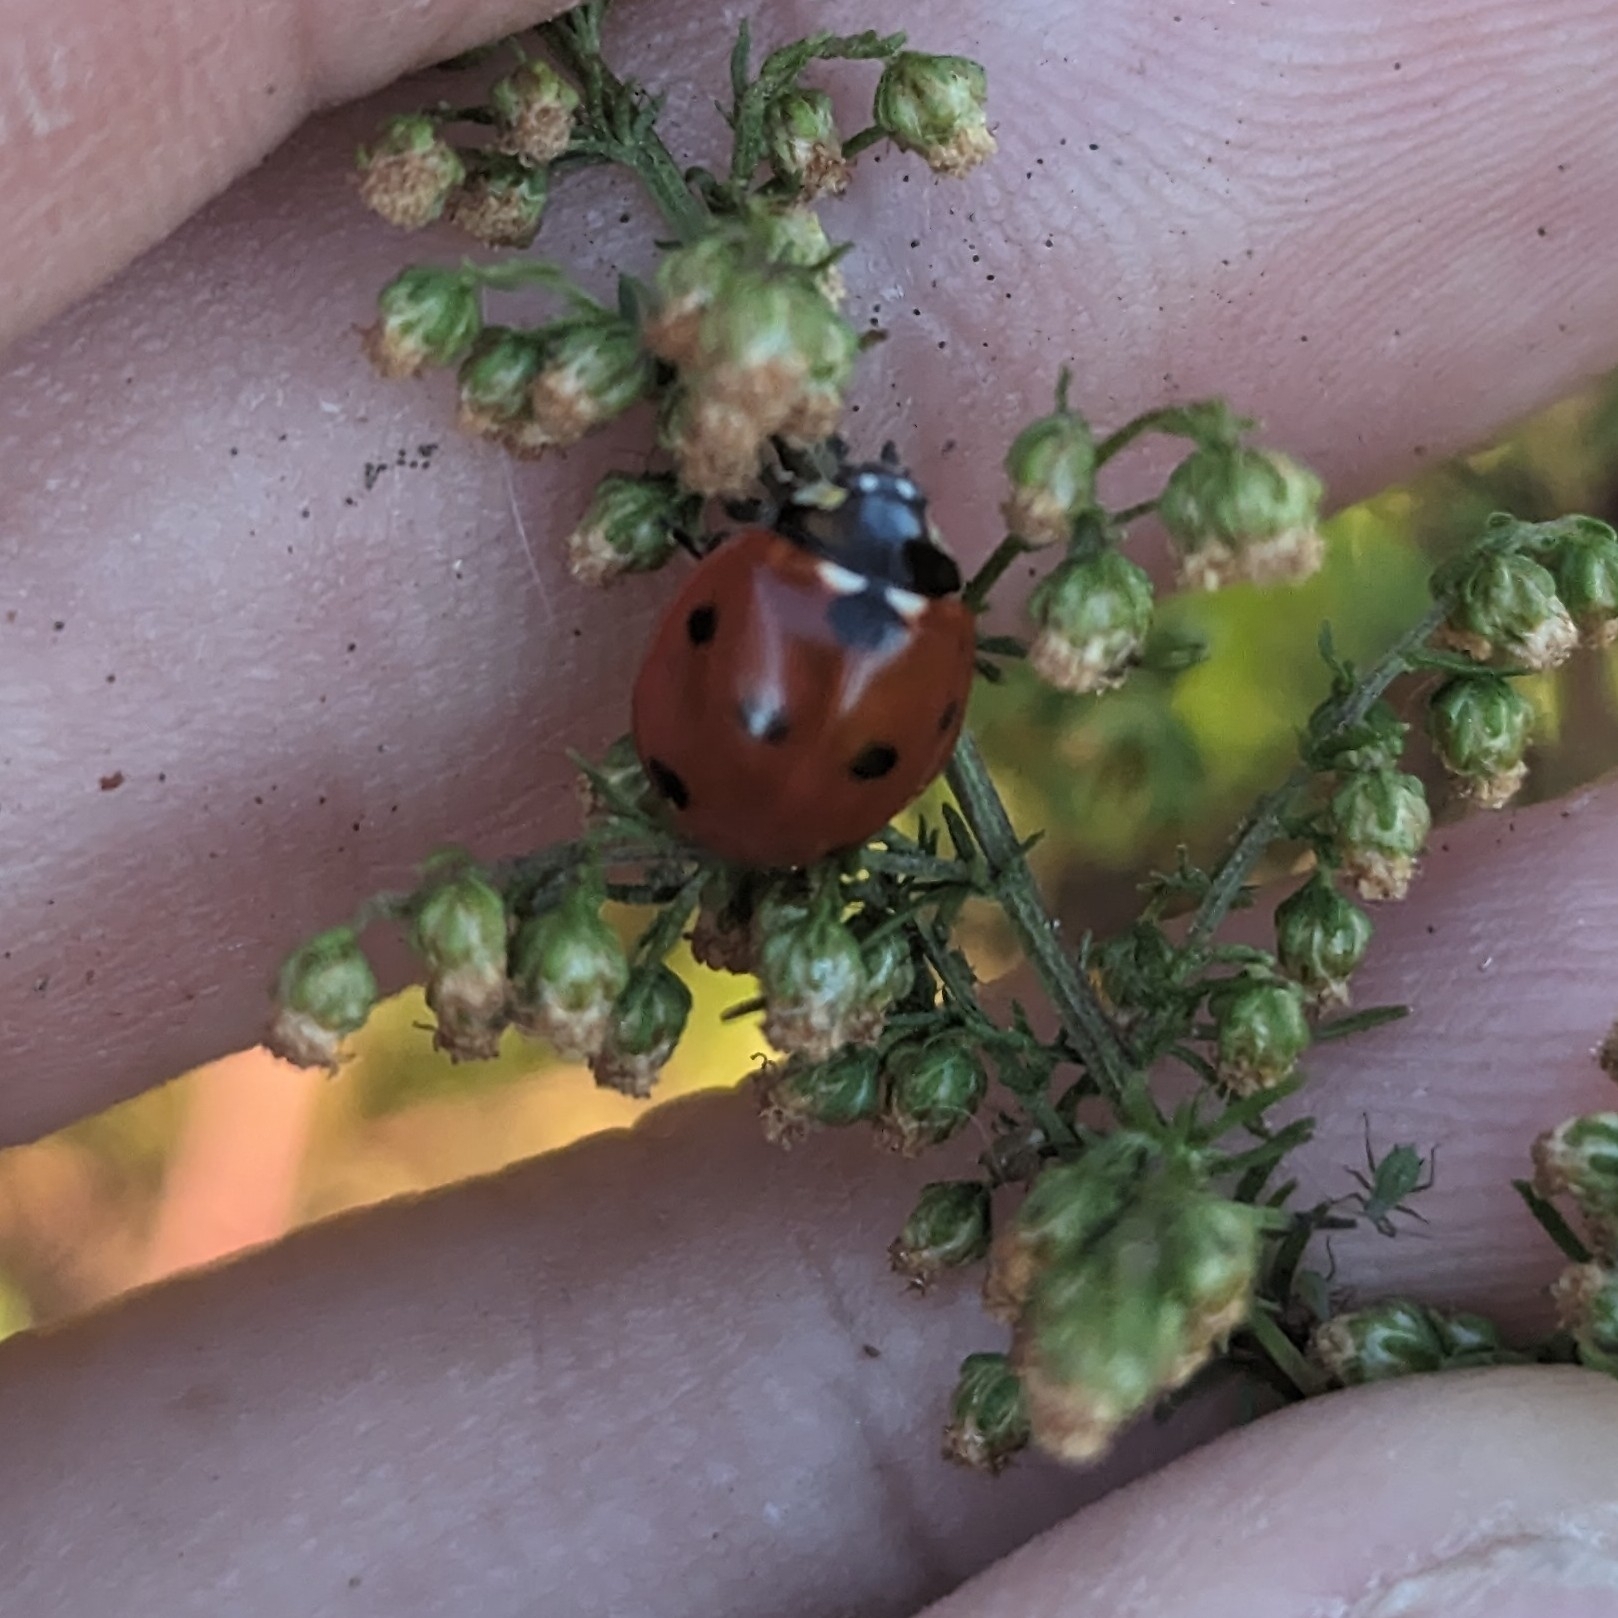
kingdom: Animalia
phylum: Arthropoda
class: Insecta
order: Coleoptera
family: Coccinellidae
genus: Coccinella
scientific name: Coccinella septempunctata
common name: Sevenspotted lady beetle
